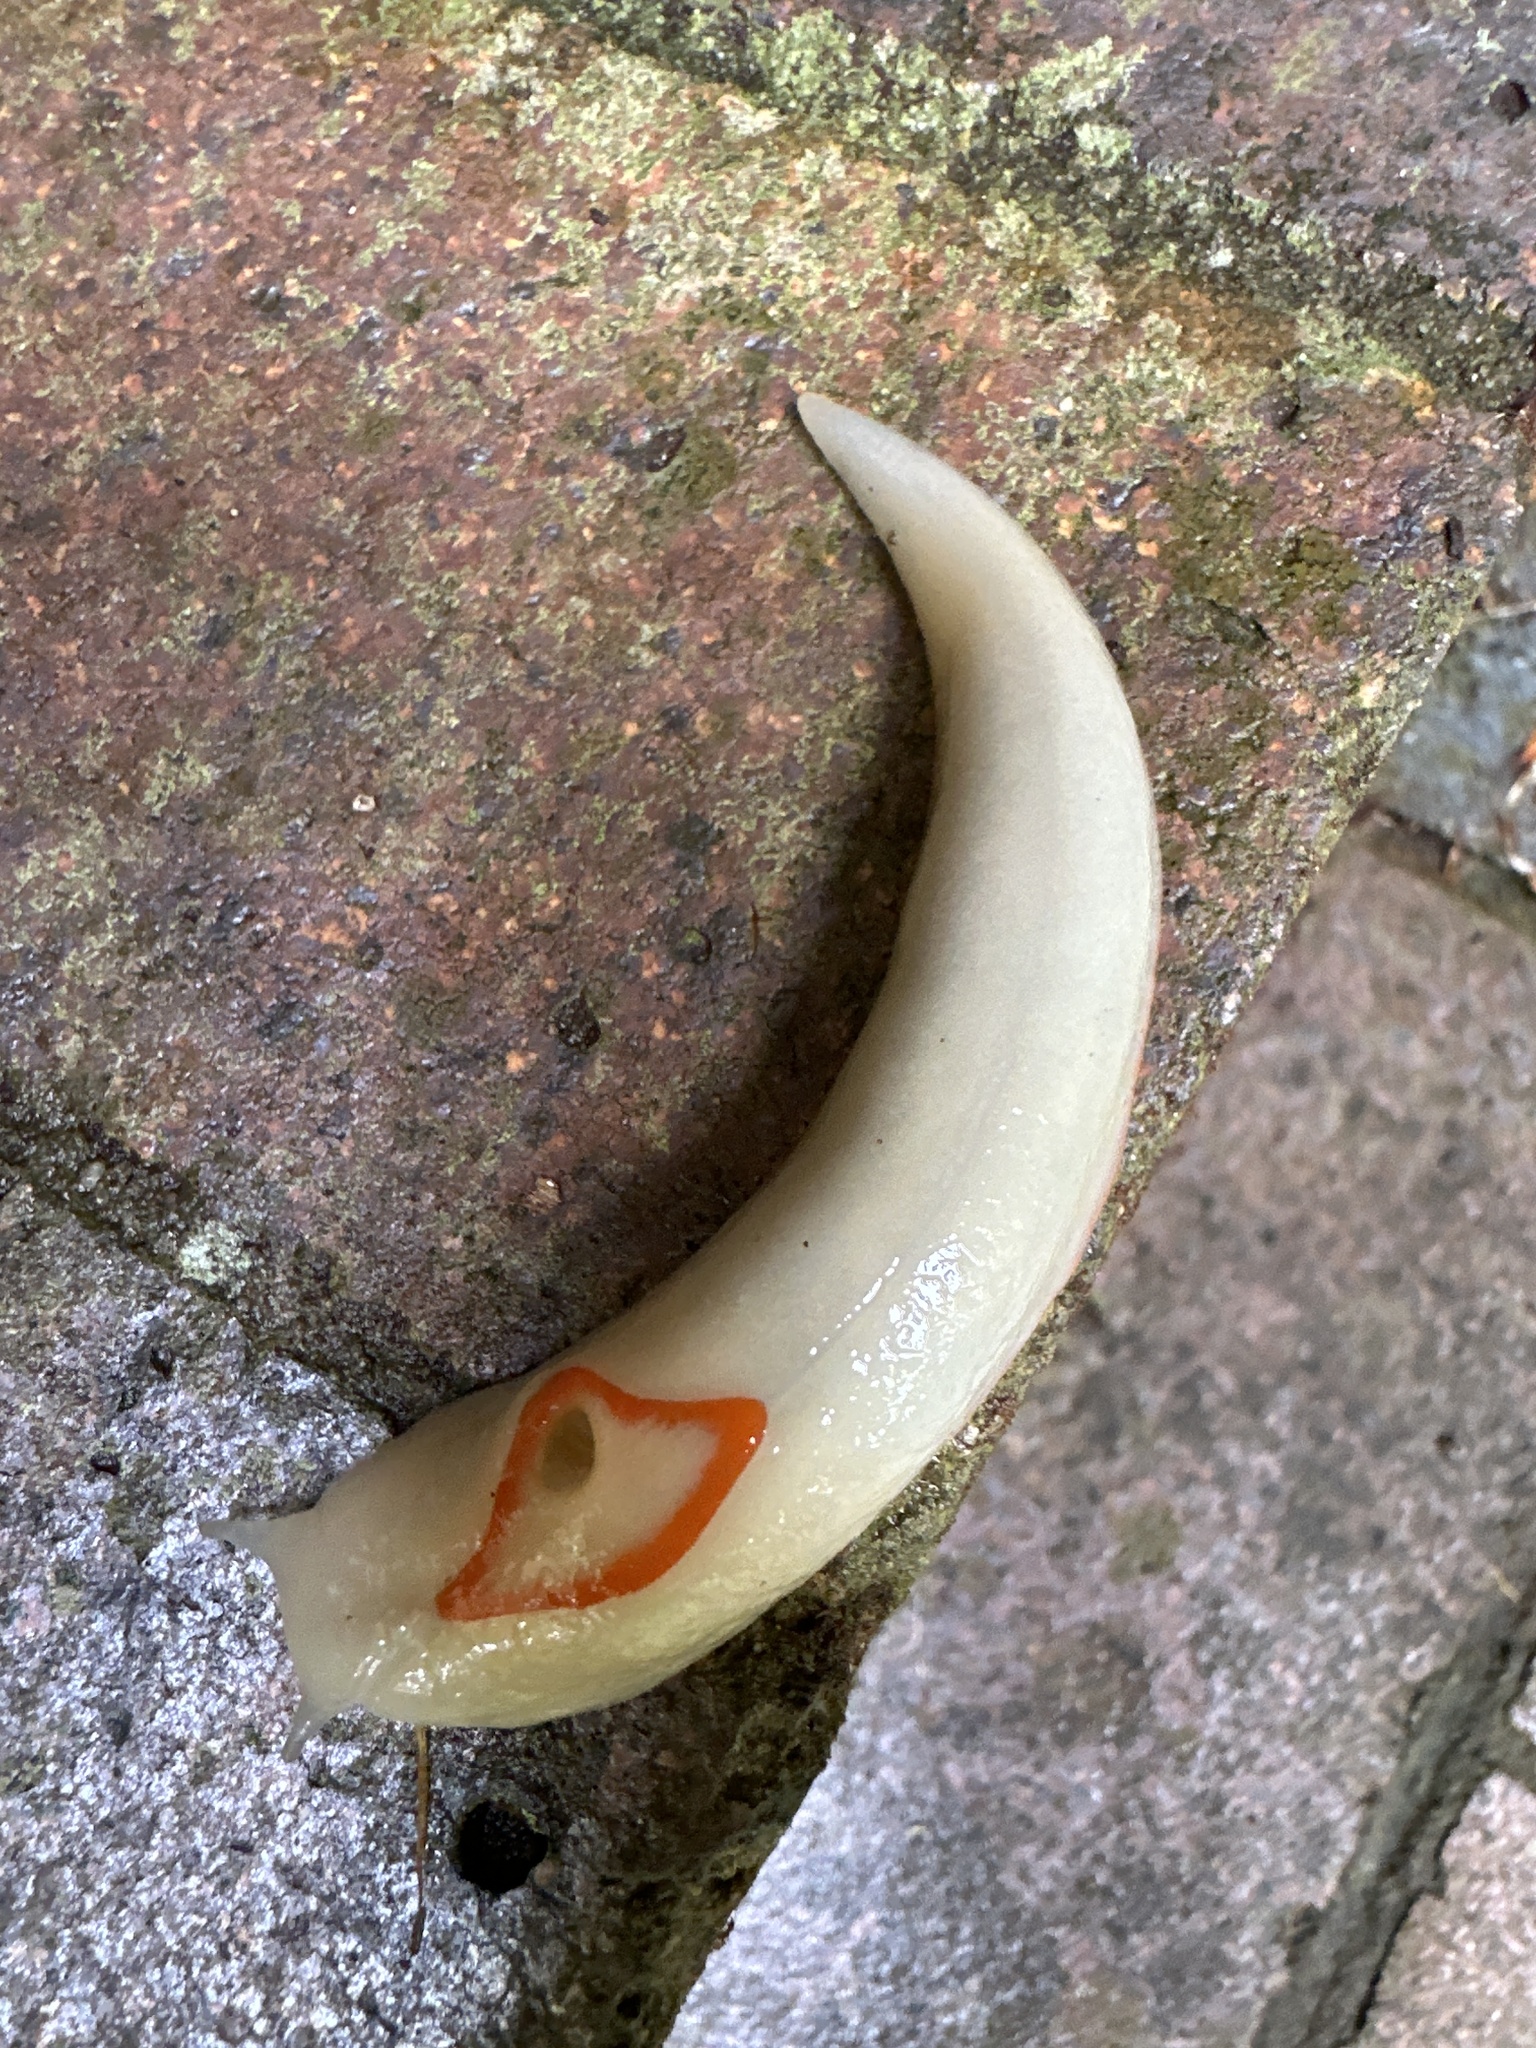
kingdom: Animalia
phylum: Mollusca
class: Gastropoda
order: Stylommatophora
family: Athoracophoridae
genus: Triboniophorus
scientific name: Triboniophorus graeffei
